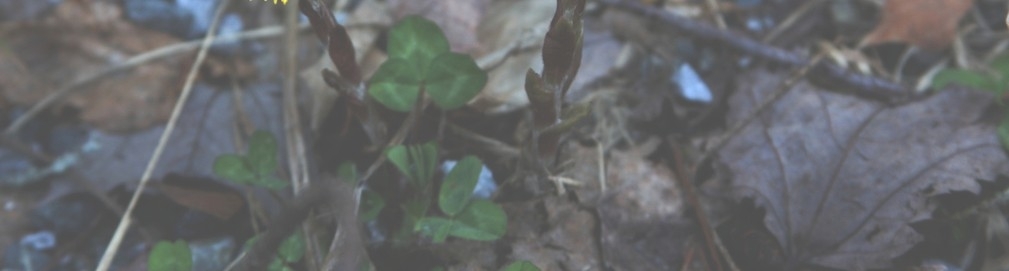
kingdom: Plantae
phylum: Tracheophyta
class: Magnoliopsida
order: Fabales
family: Fabaceae
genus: Trifolium
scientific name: Trifolium repens
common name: White clover
